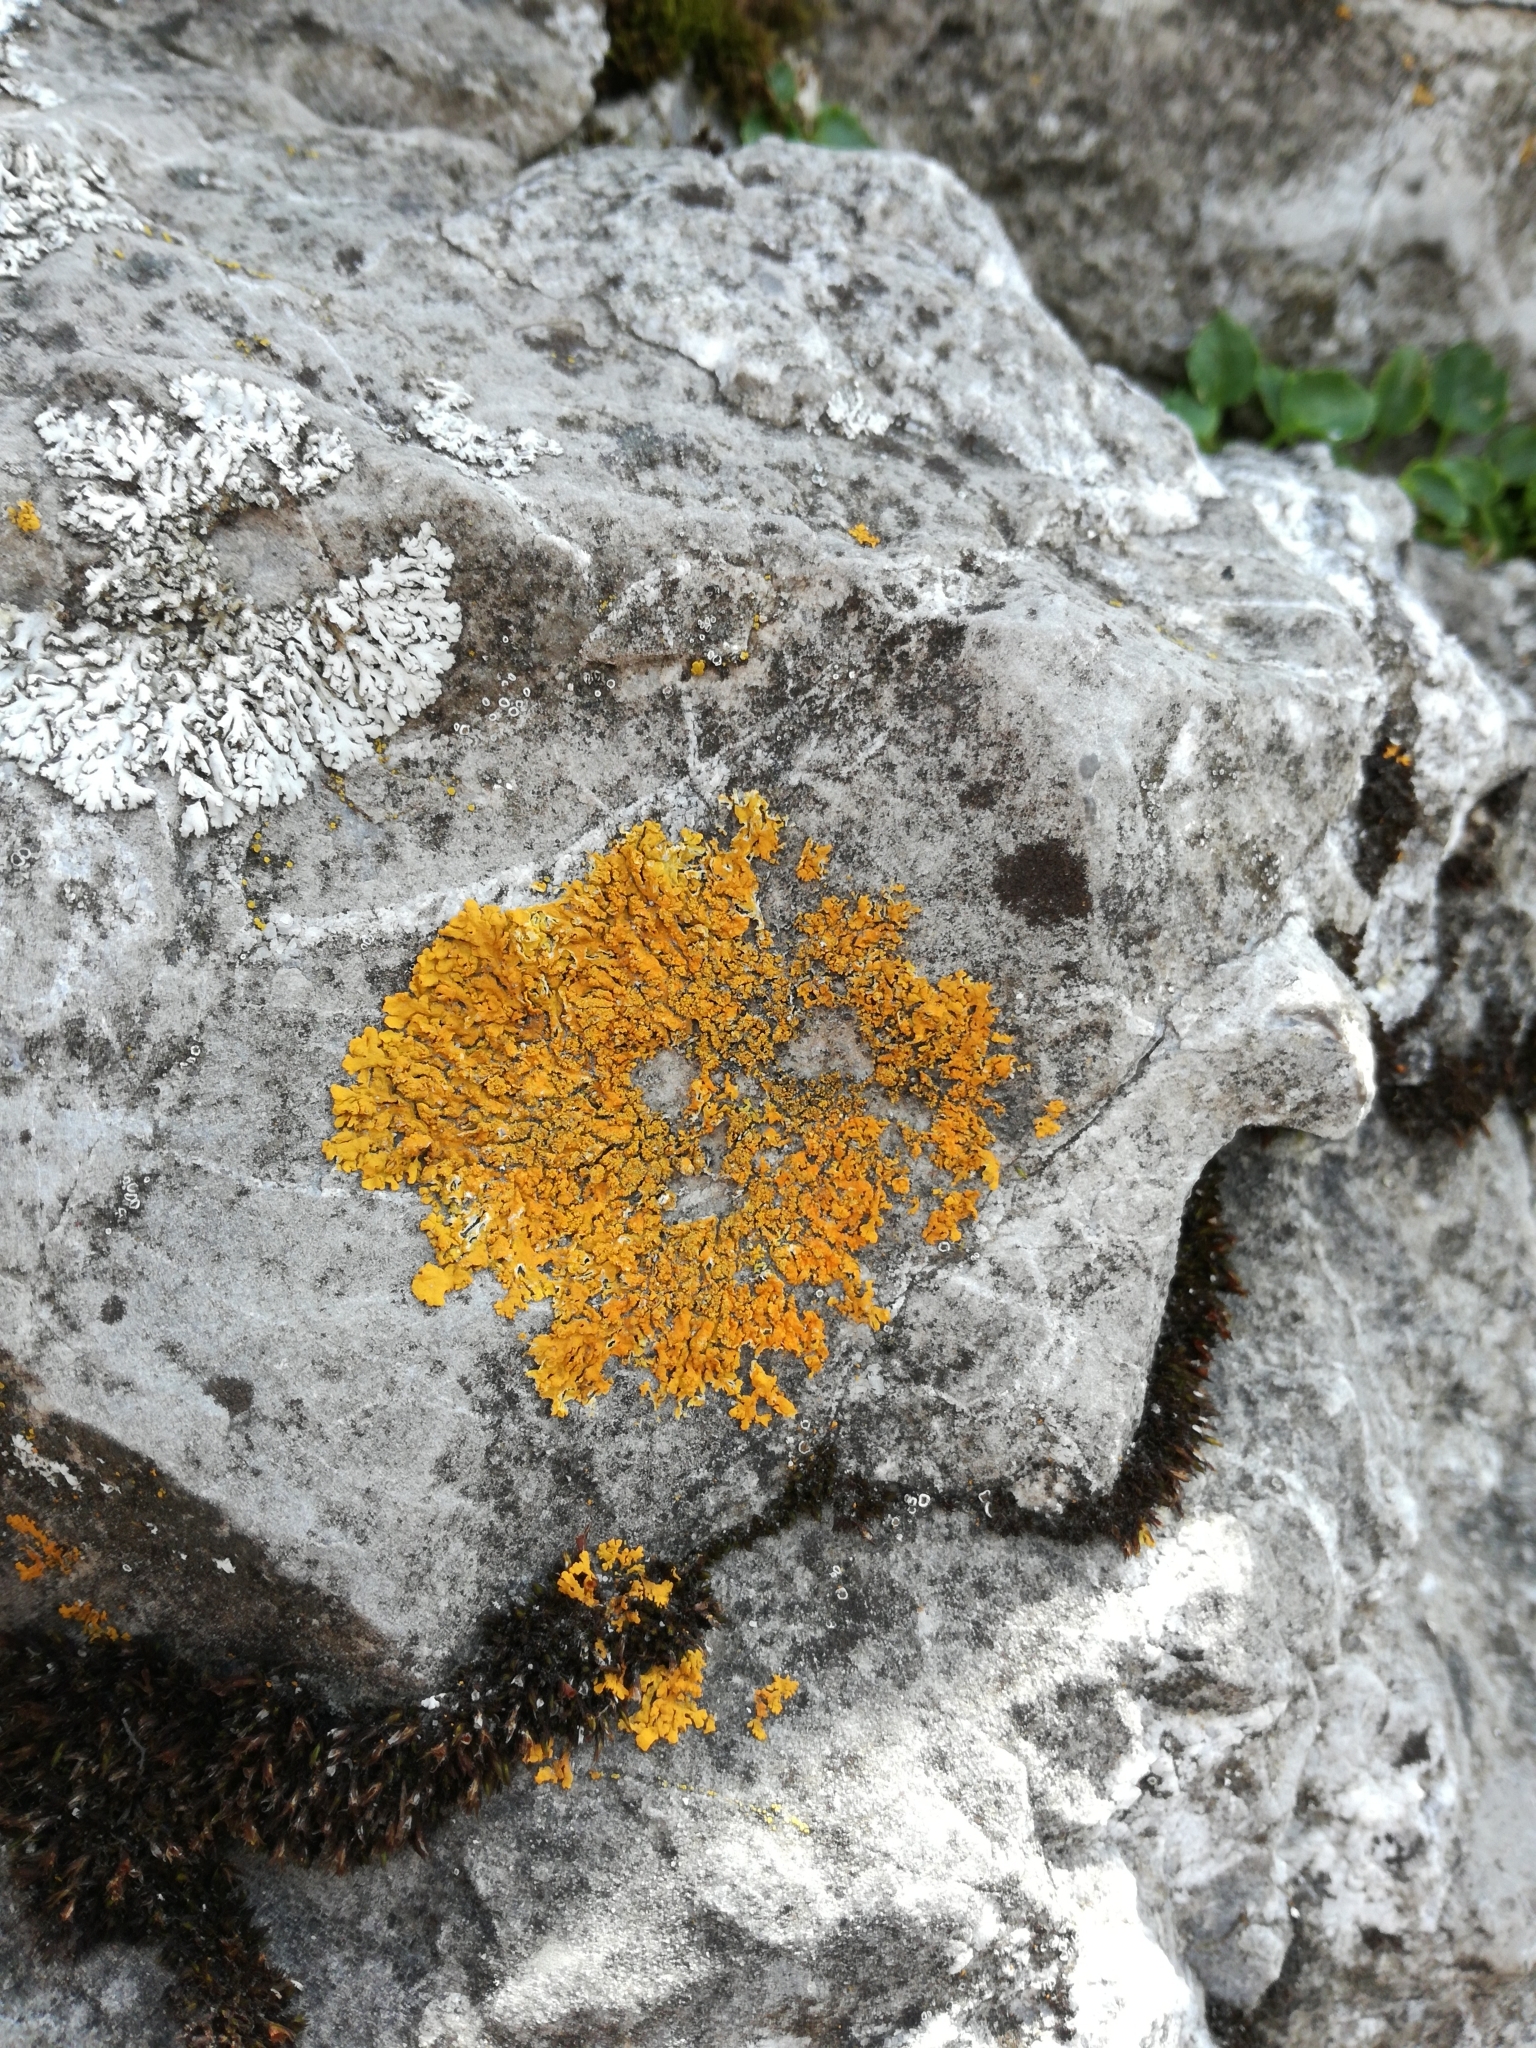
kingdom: Fungi
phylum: Ascomycota
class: Lecanoromycetes
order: Teloschistales
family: Teloschistaceae
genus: Xanthoria
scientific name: Xanthoria elegans
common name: Elegant sunburst lichen
